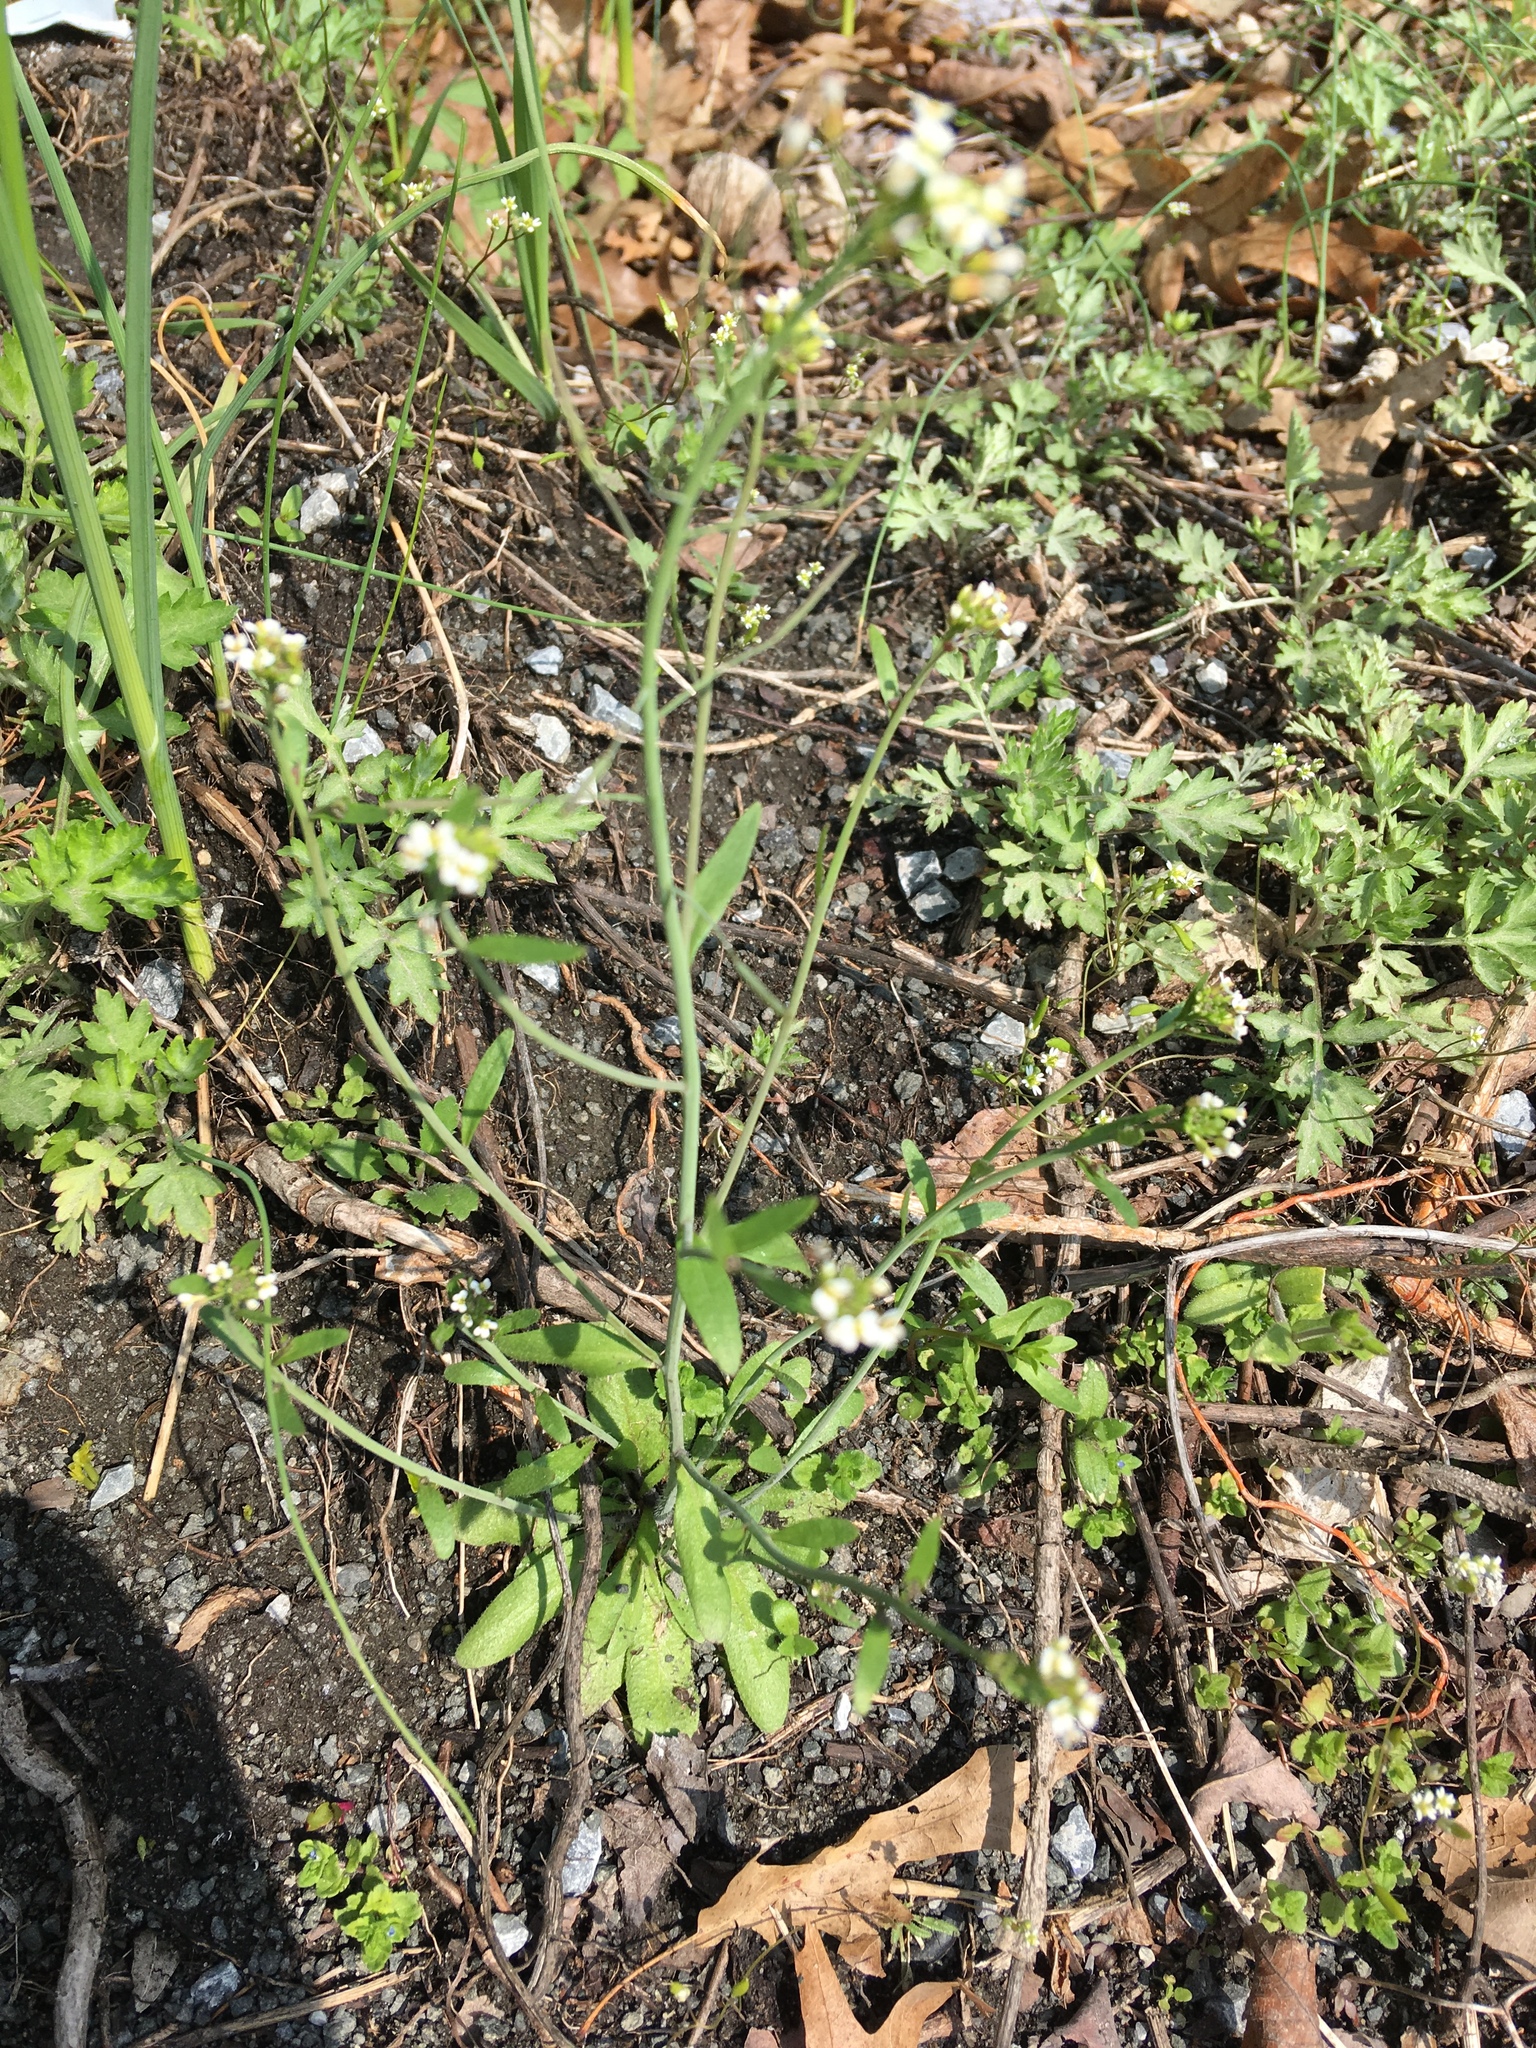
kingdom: Plantae
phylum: Tracheophyta
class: Magnoliopsida
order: Brassicales
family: Brassicaceae
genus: Arabidopsis
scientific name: Arabidopsis thaliana
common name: Thale cress
